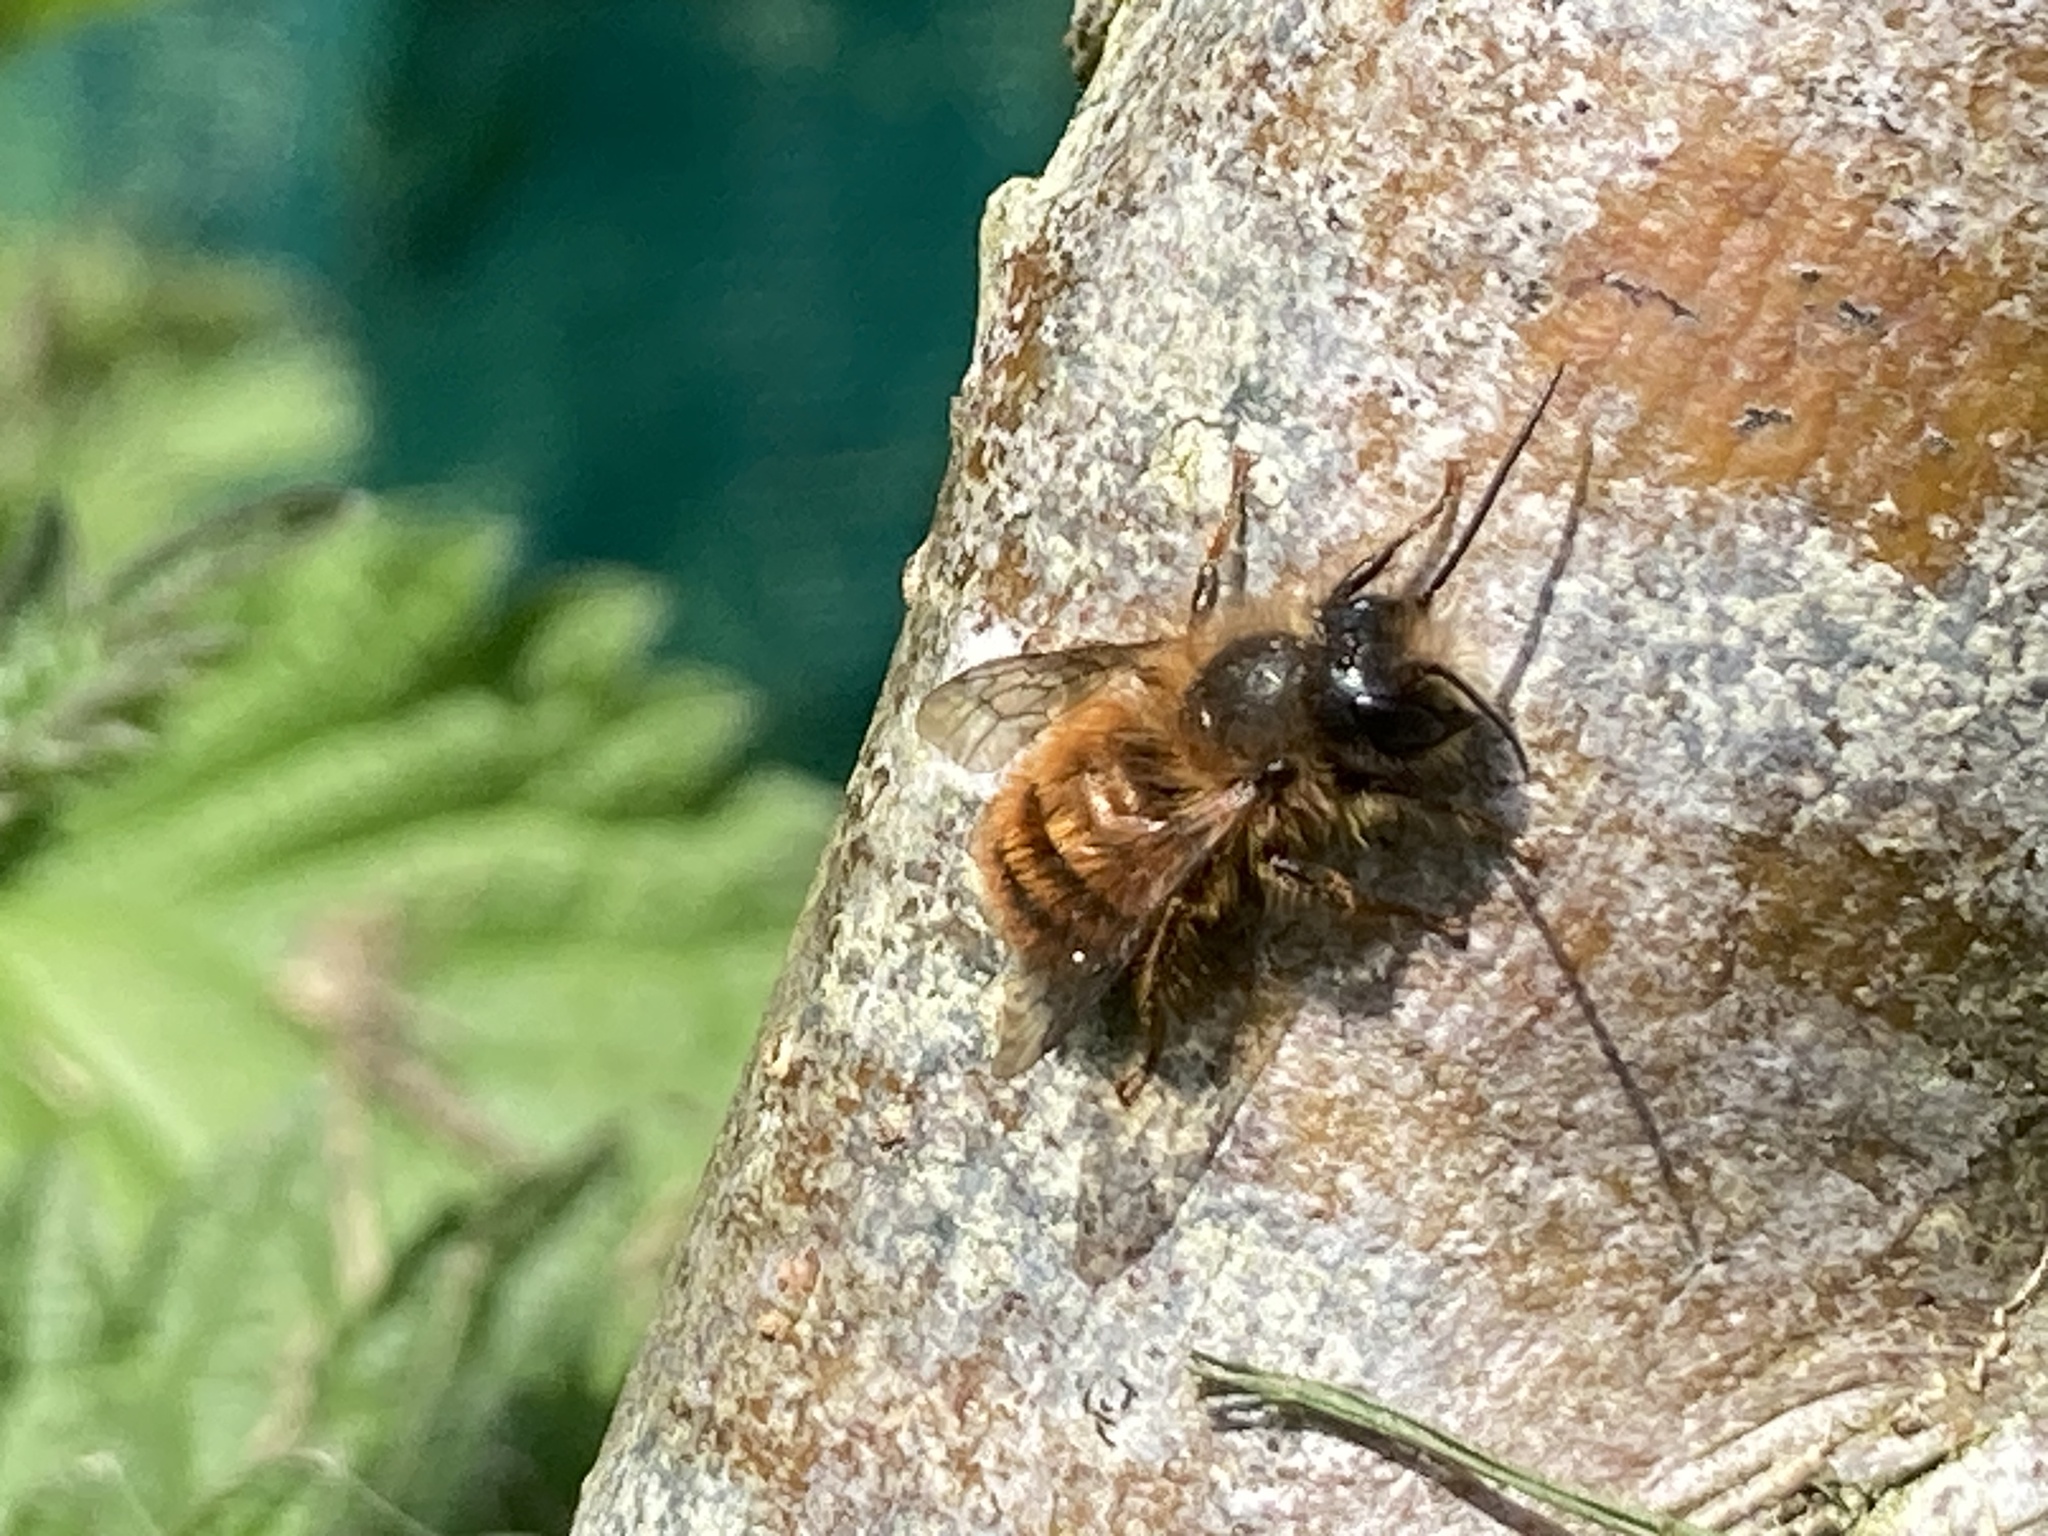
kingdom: Animalia
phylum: Arthropoda
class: Insecta
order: Hymenoptera
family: Megachilidae
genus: Osmia
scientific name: Osmia bicornis
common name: Red mason bee
